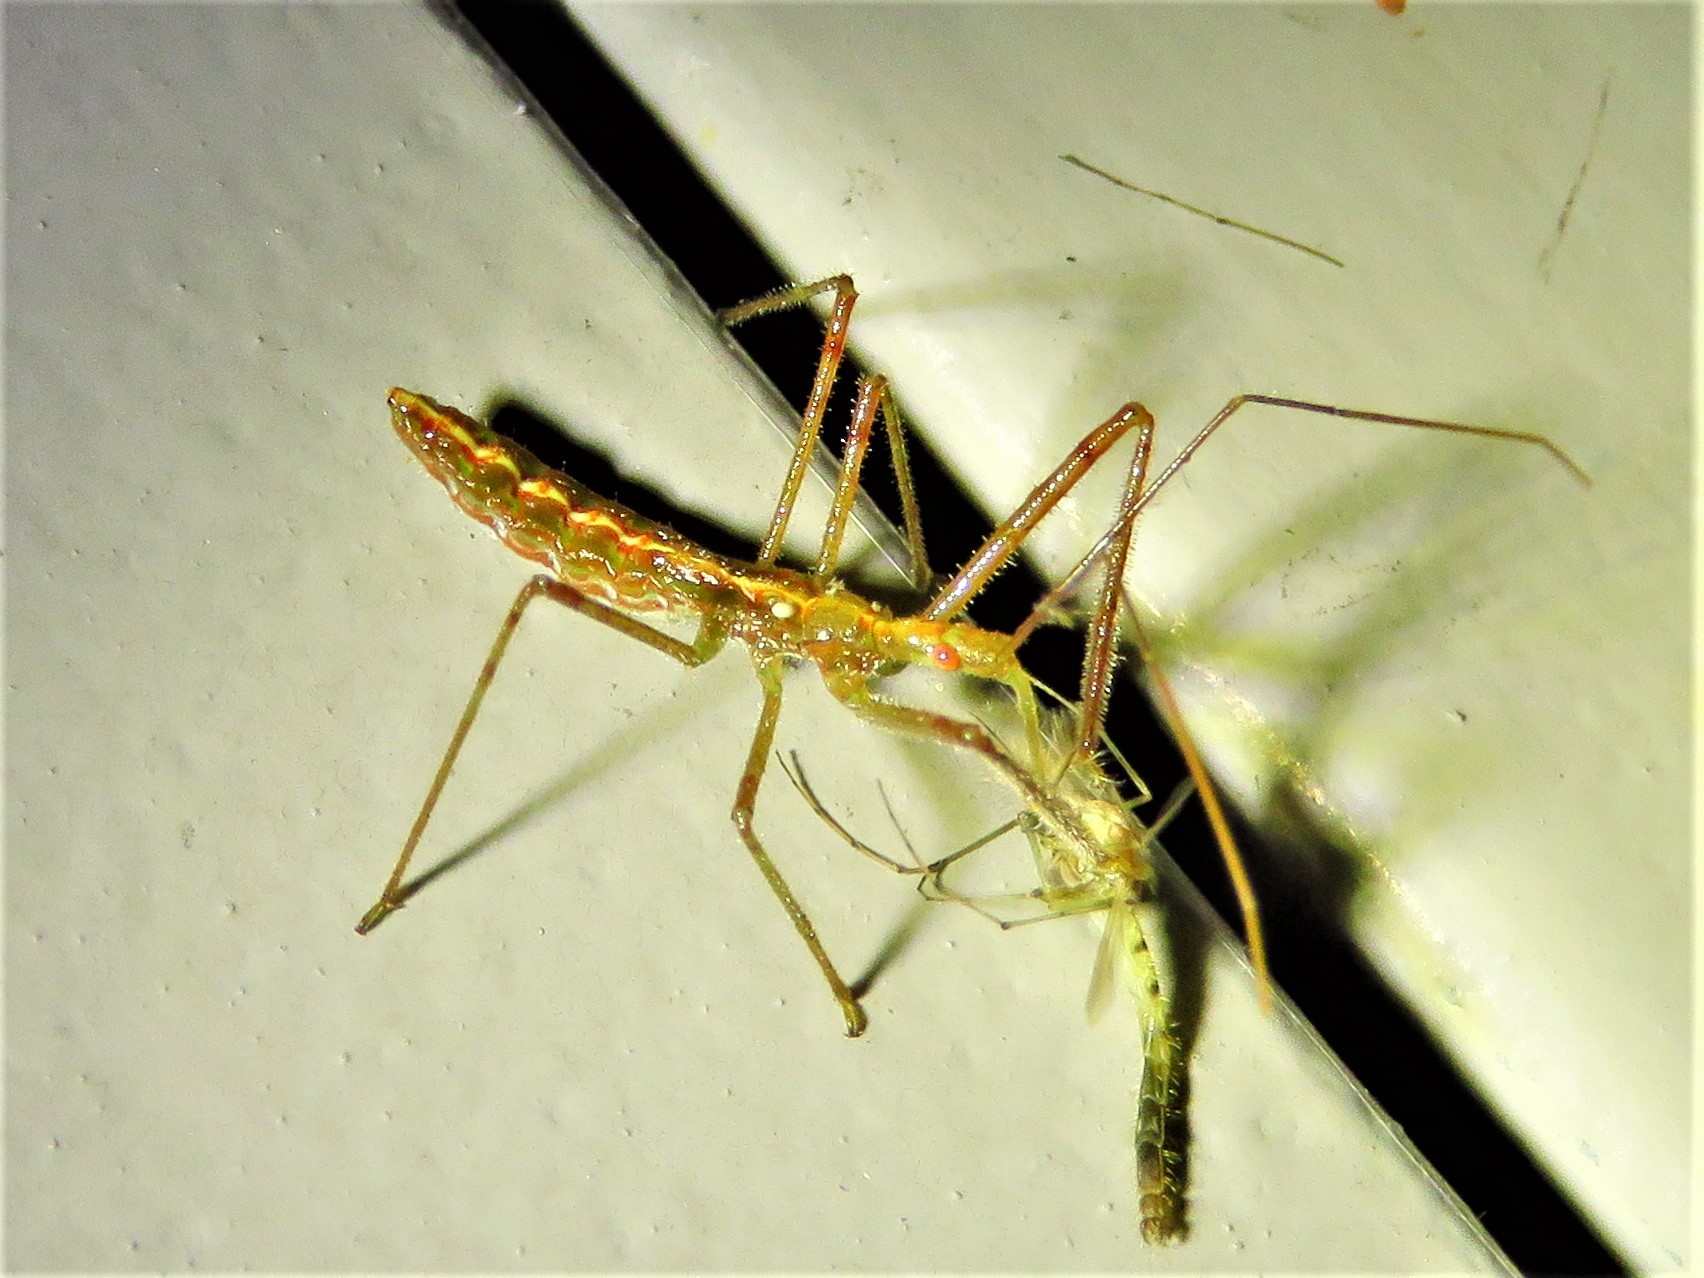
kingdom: Animalia
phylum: Arthropoda
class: Insecta
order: Hemiptera
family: Reduviidae
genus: Zelus
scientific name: Zelus luridus
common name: Pale green assassin bug
